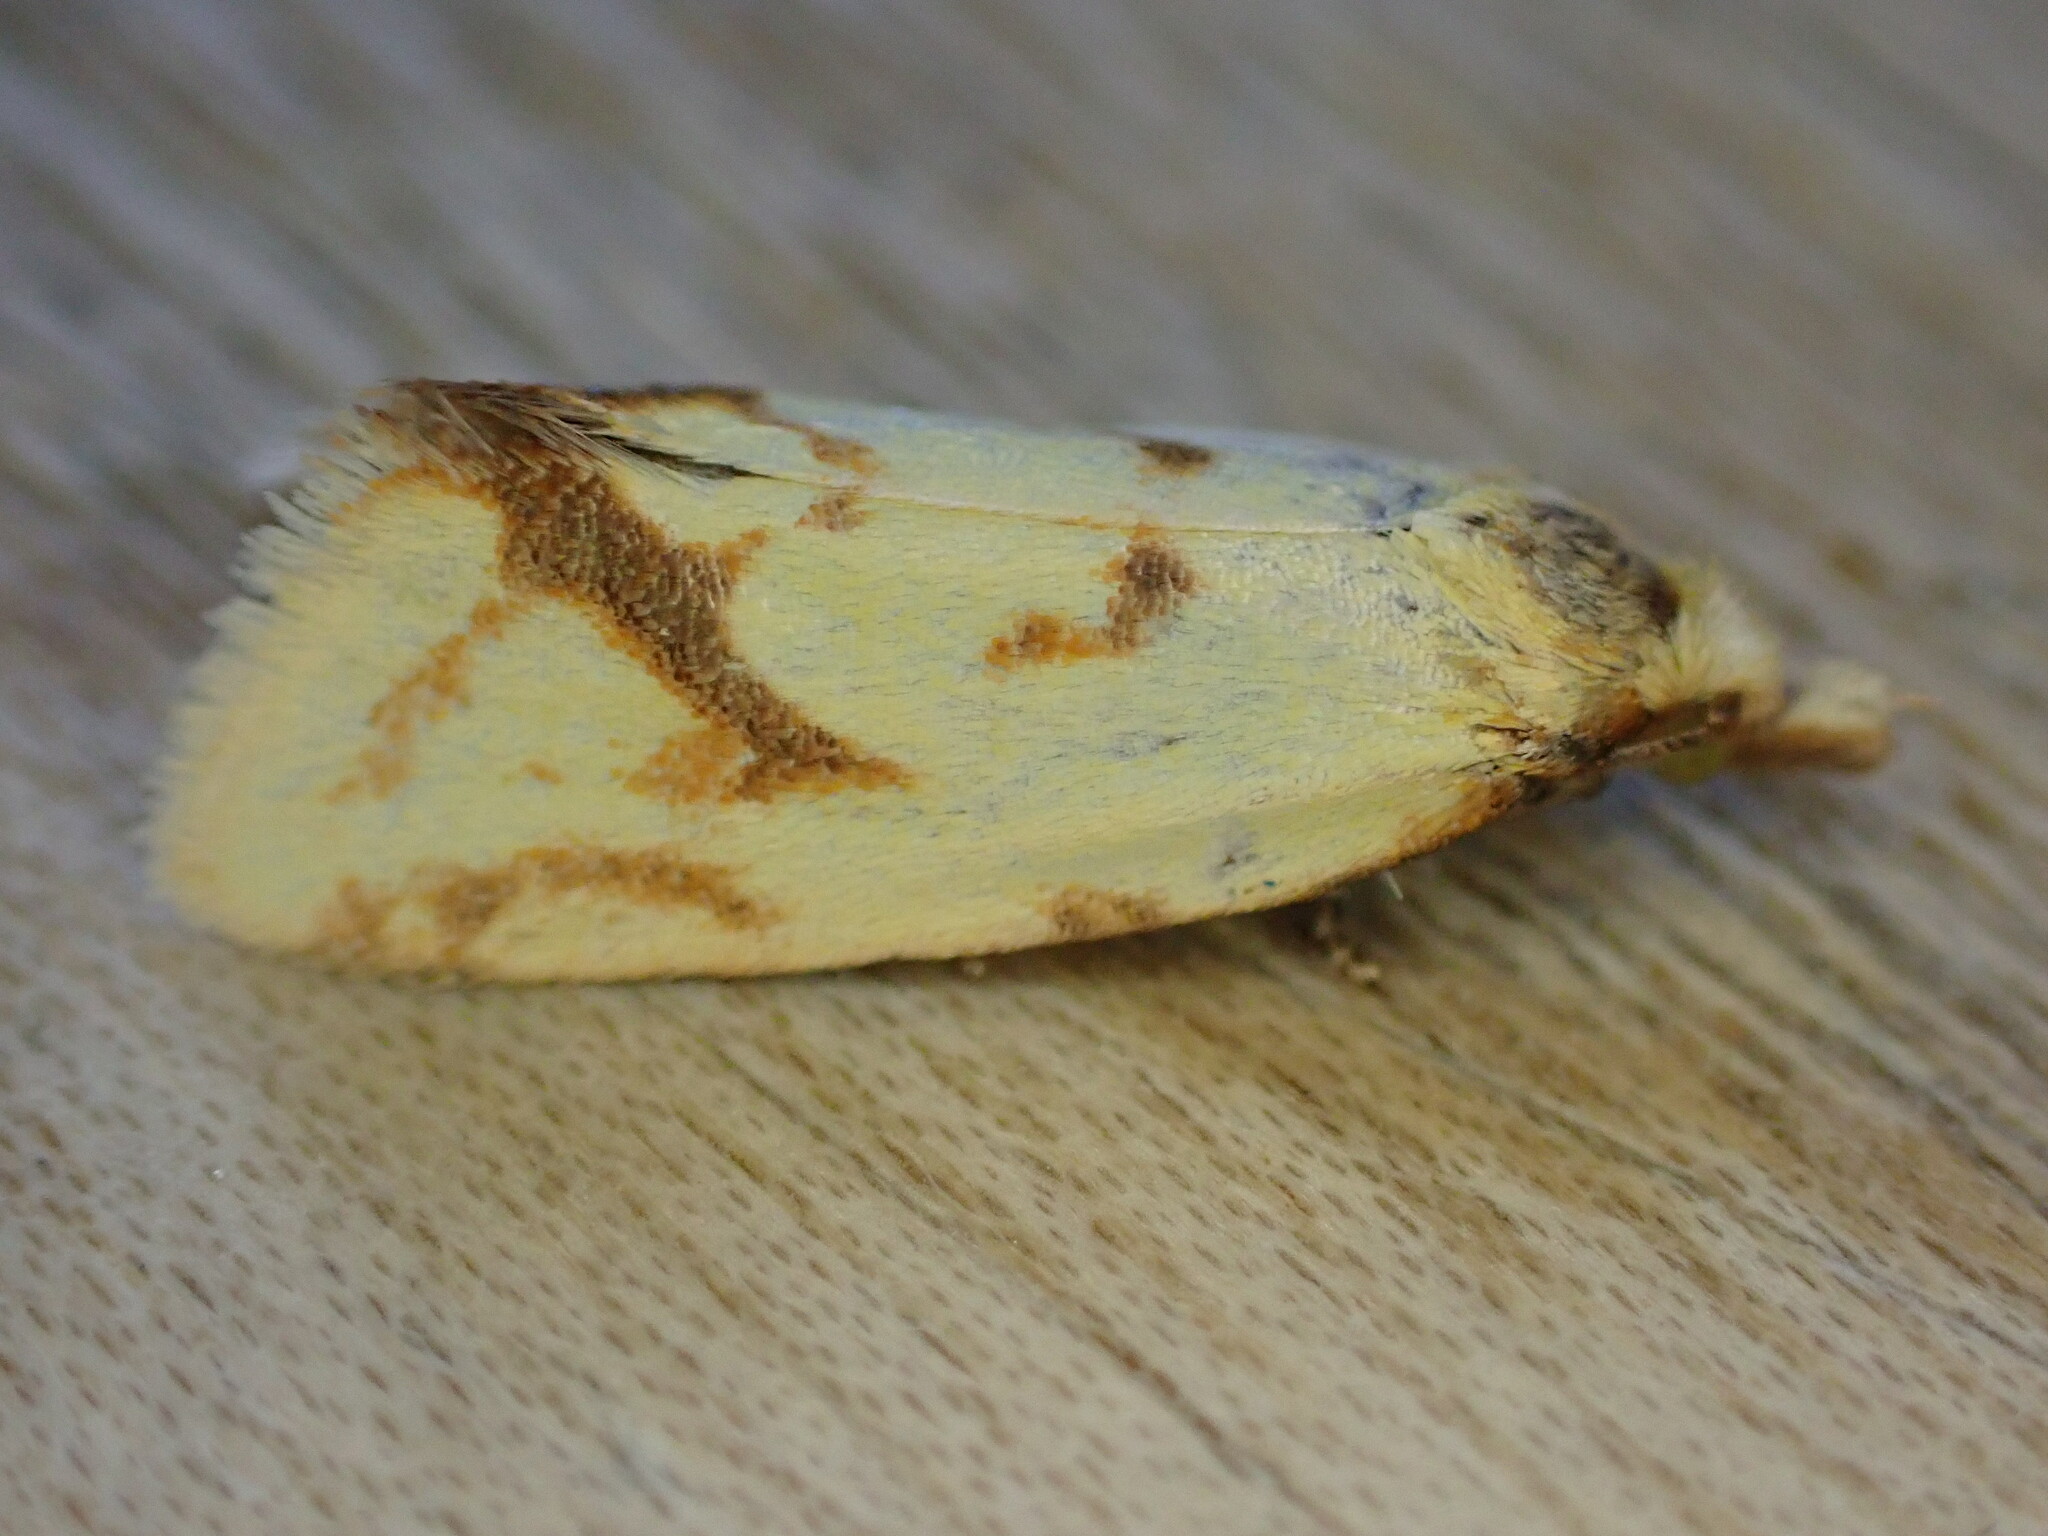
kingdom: Animalia
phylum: Arthropoda
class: Insecta
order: Lepidoptera
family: Tortricidae
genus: Agapeta
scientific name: Agapeta hamana
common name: Common yellow conch
